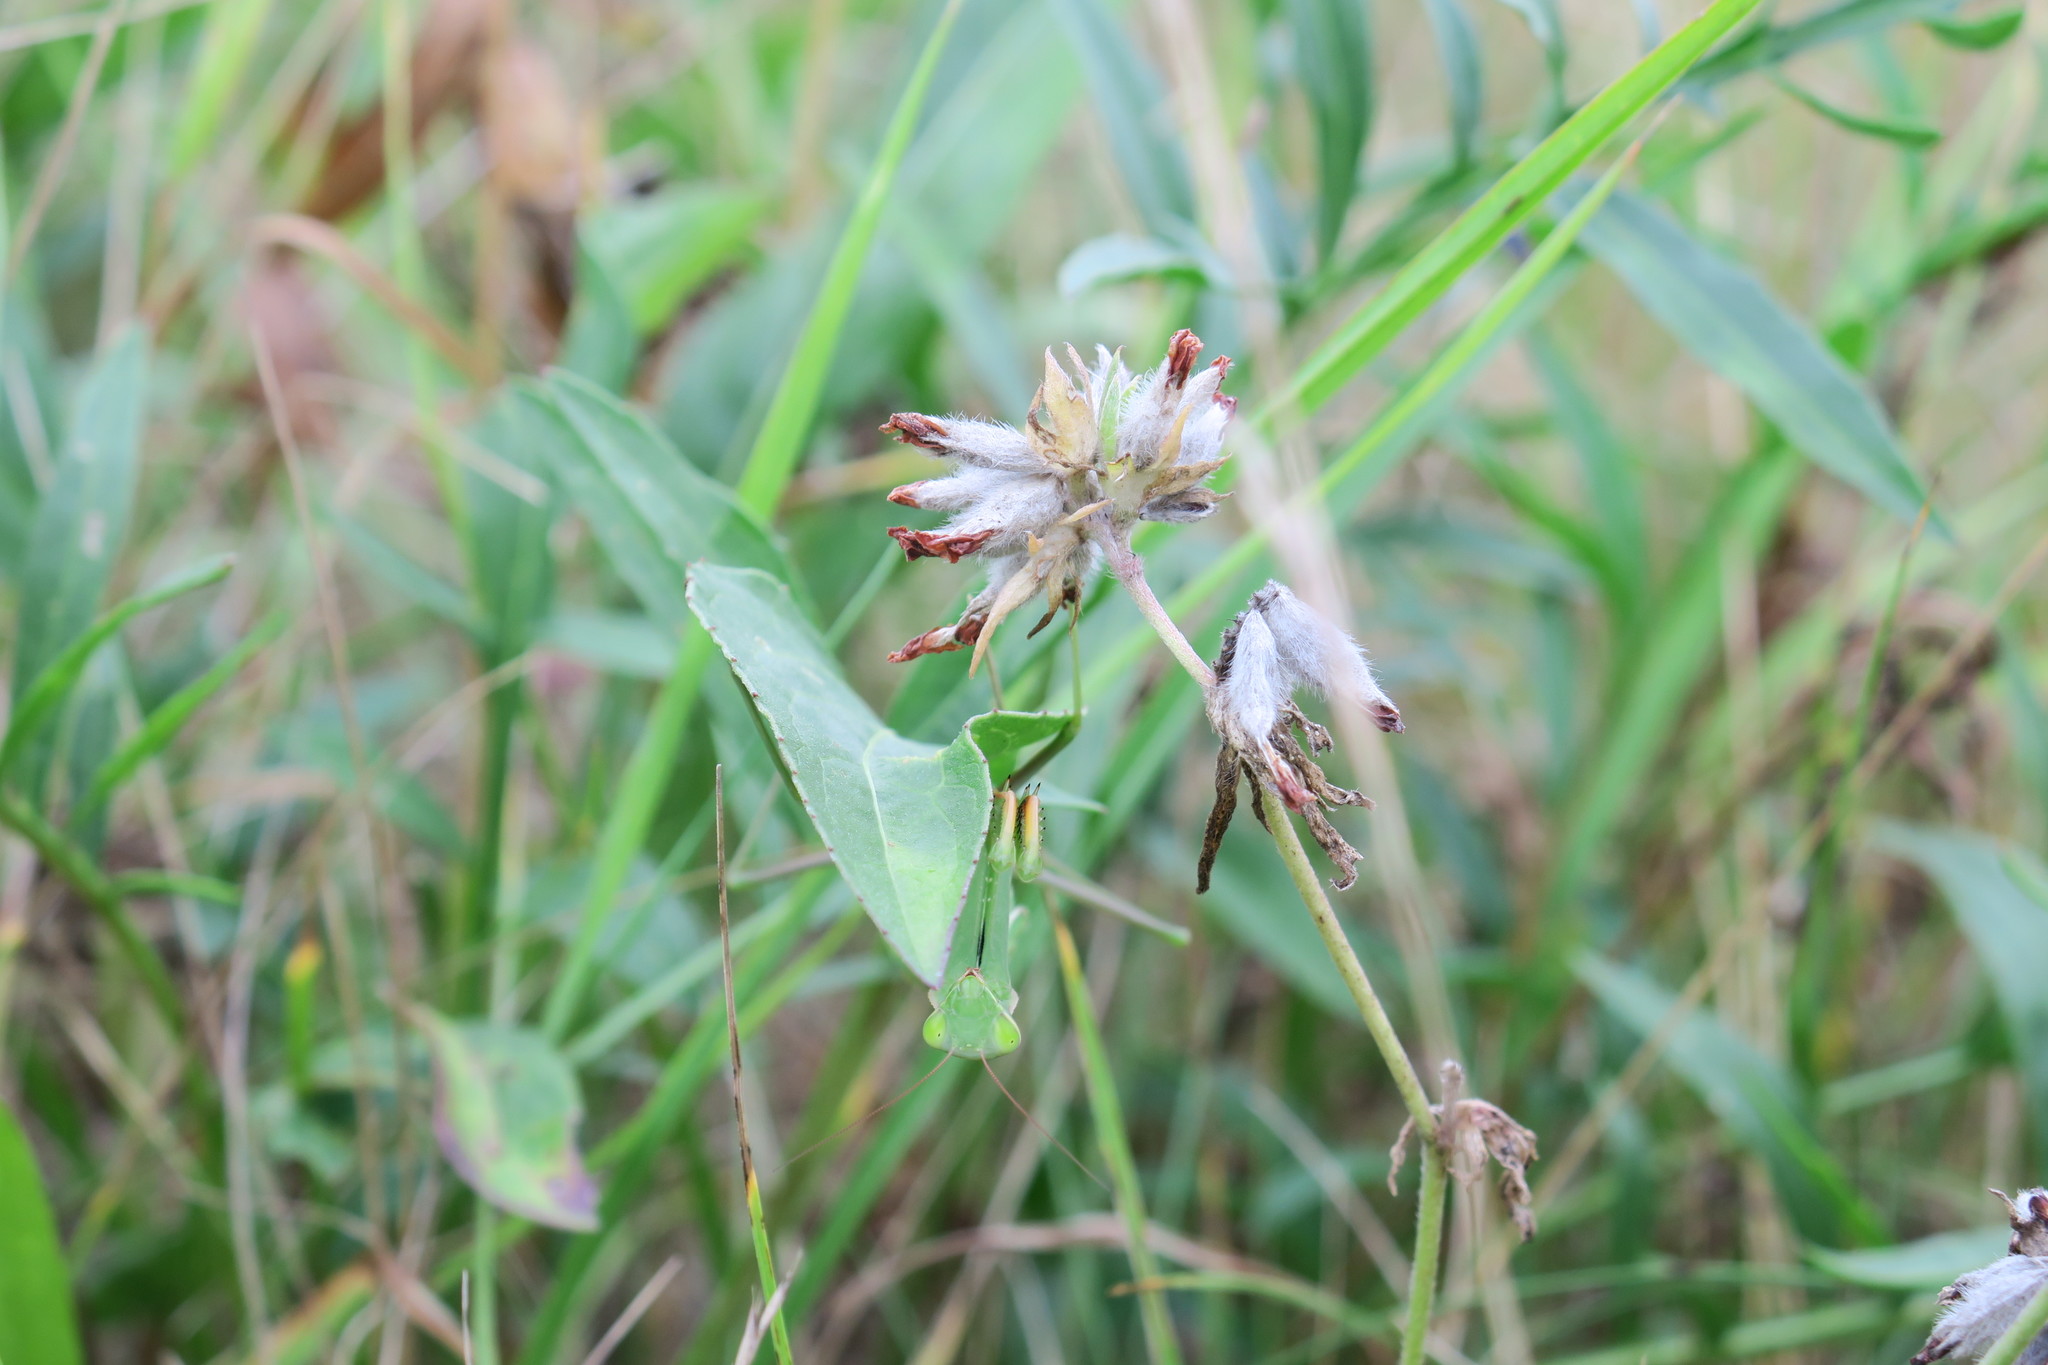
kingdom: Animalia
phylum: Arthropoda
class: Insecta
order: Mantodea
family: Mantidae
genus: Mantis
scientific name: Mantis religiosa
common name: Praying mantis
